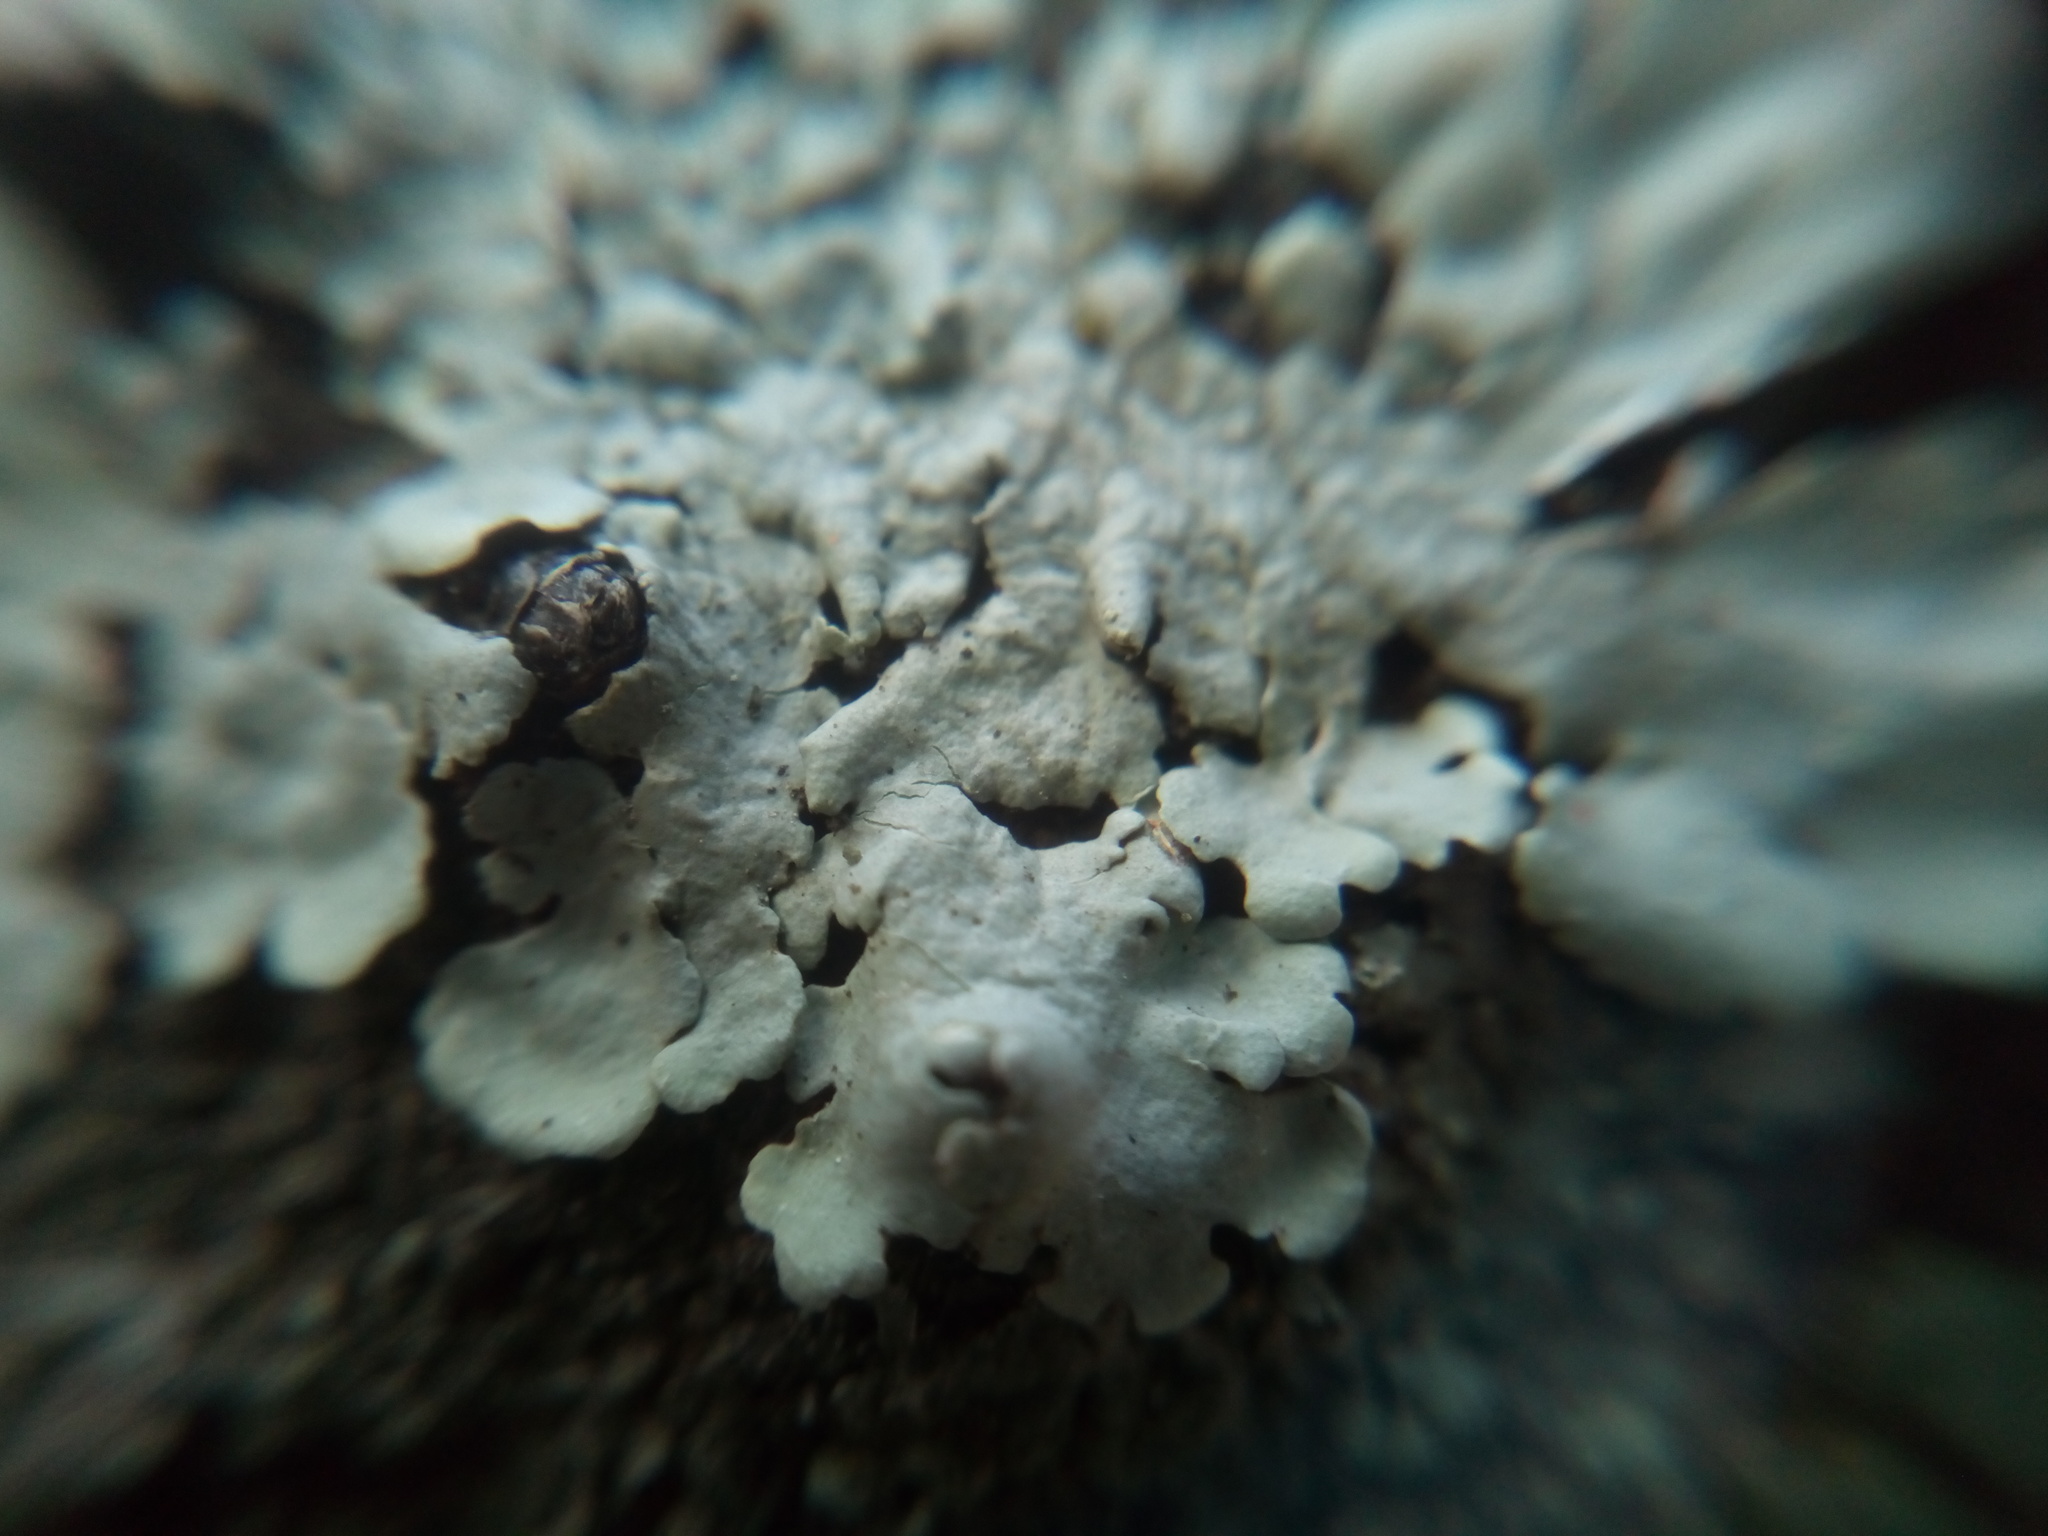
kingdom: Fungi
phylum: Ascomycota
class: Lecanoromycetes
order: Lecanorales
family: Parmeliaceae
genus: Flavoparmelia
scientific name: Flavoparmelia caperata
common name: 40-mile per hour lichen
